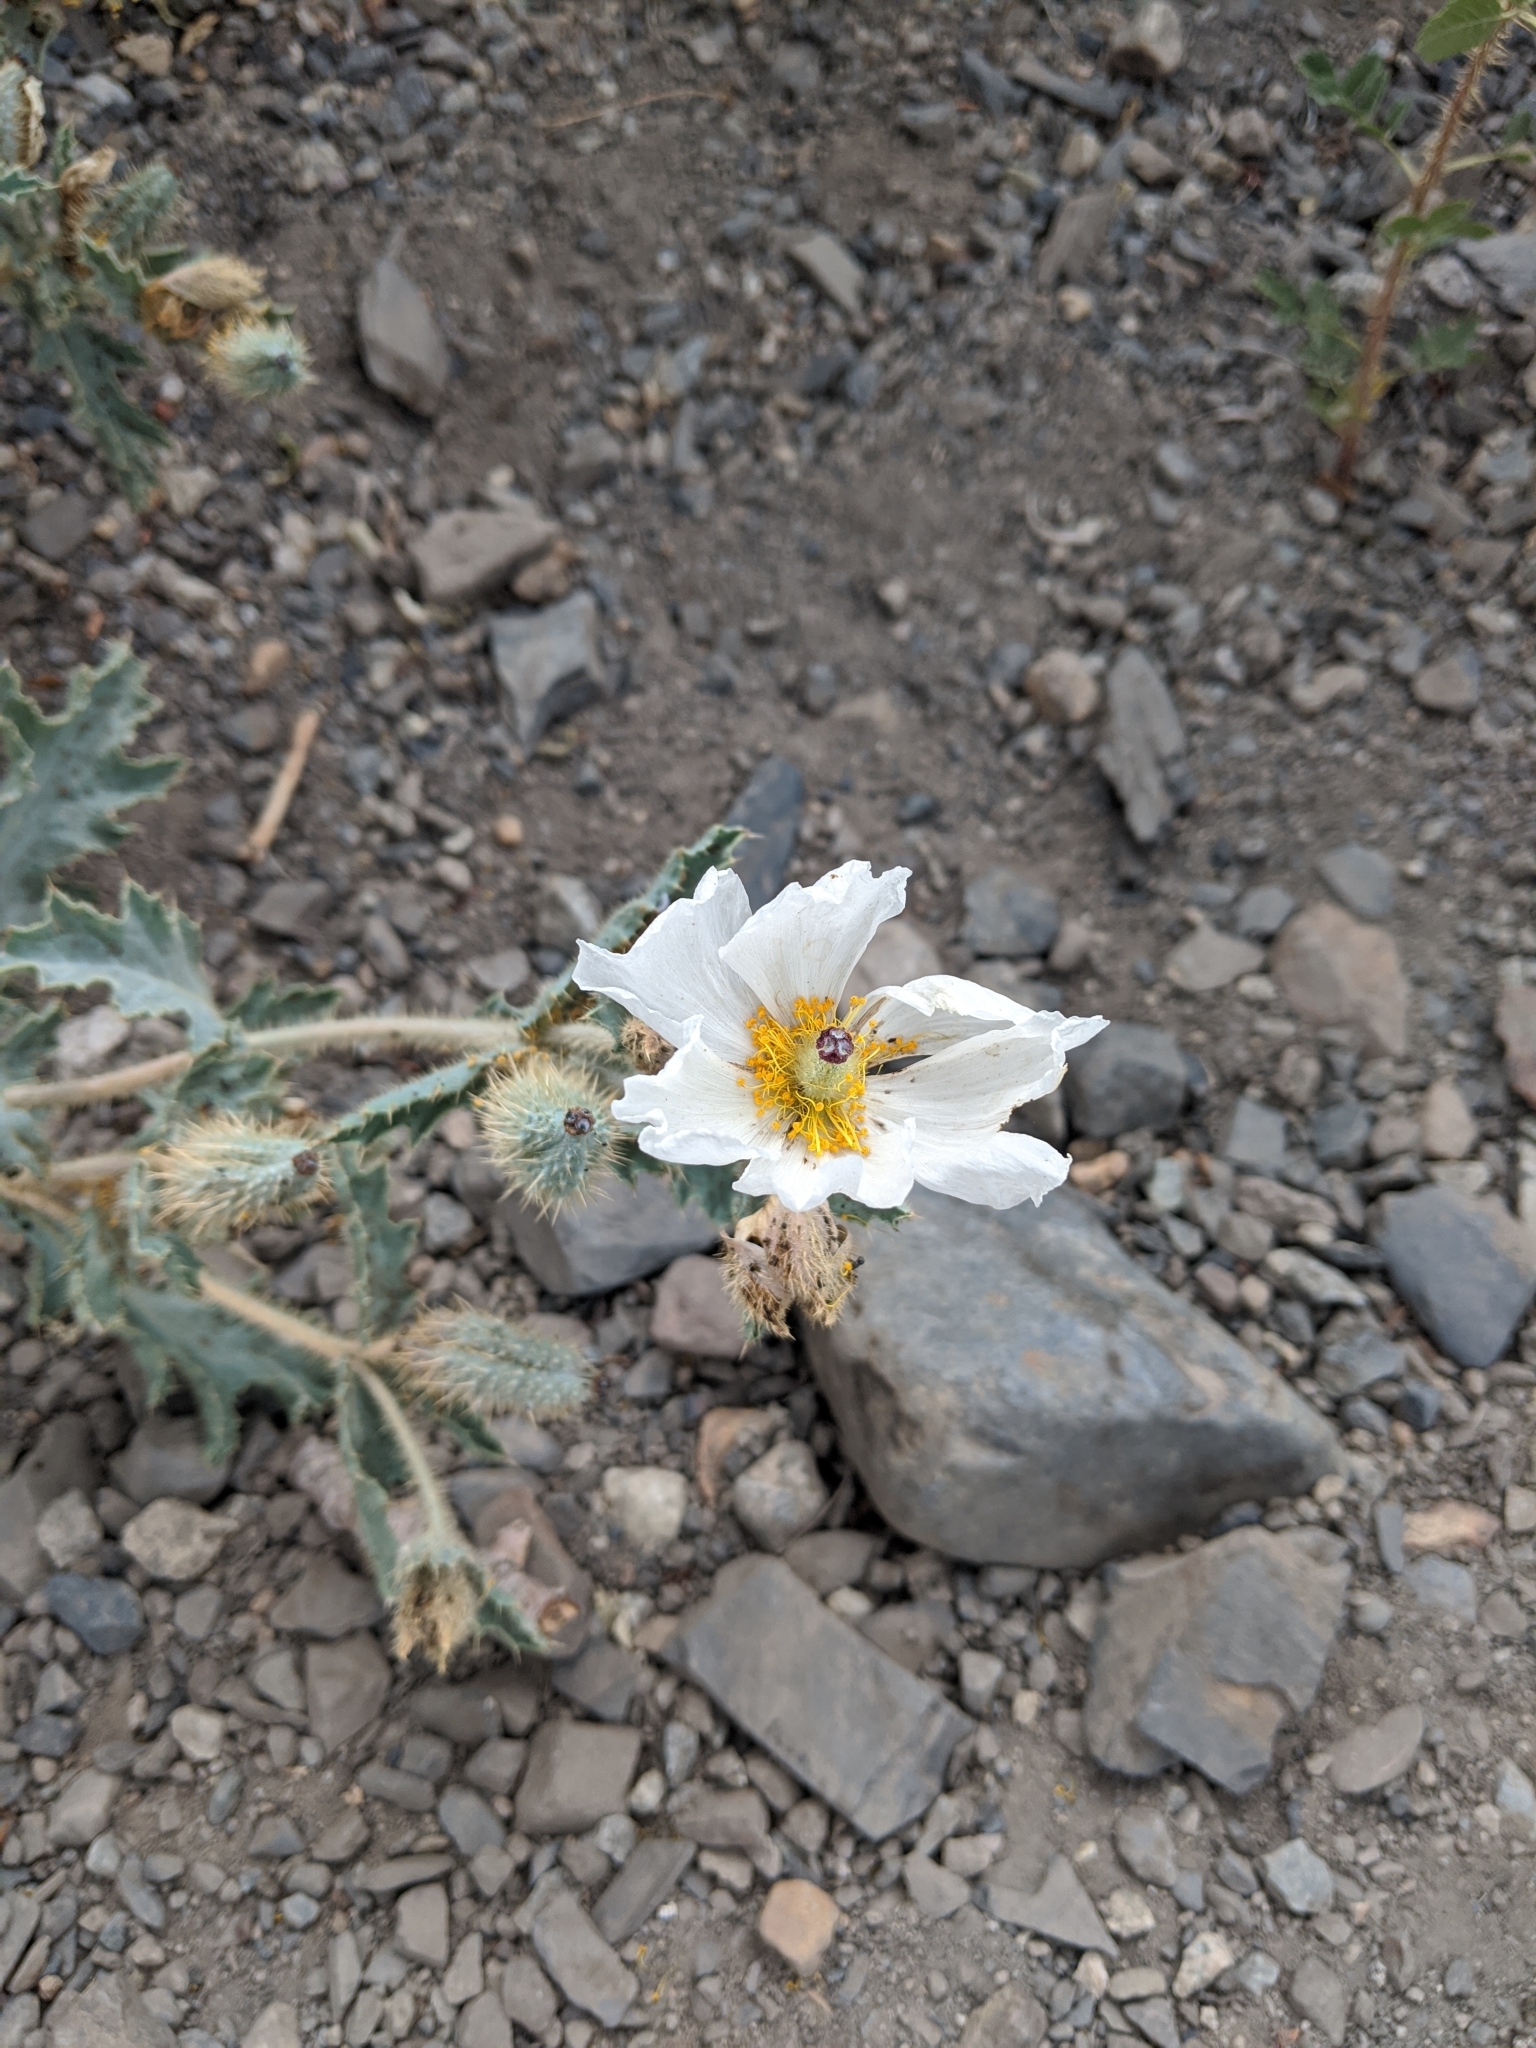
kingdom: Plantae
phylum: Tracheophyta
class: Magnoliopsida
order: Ranunculales
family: Papaveraceae
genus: Argemone
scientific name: Argemone munita
